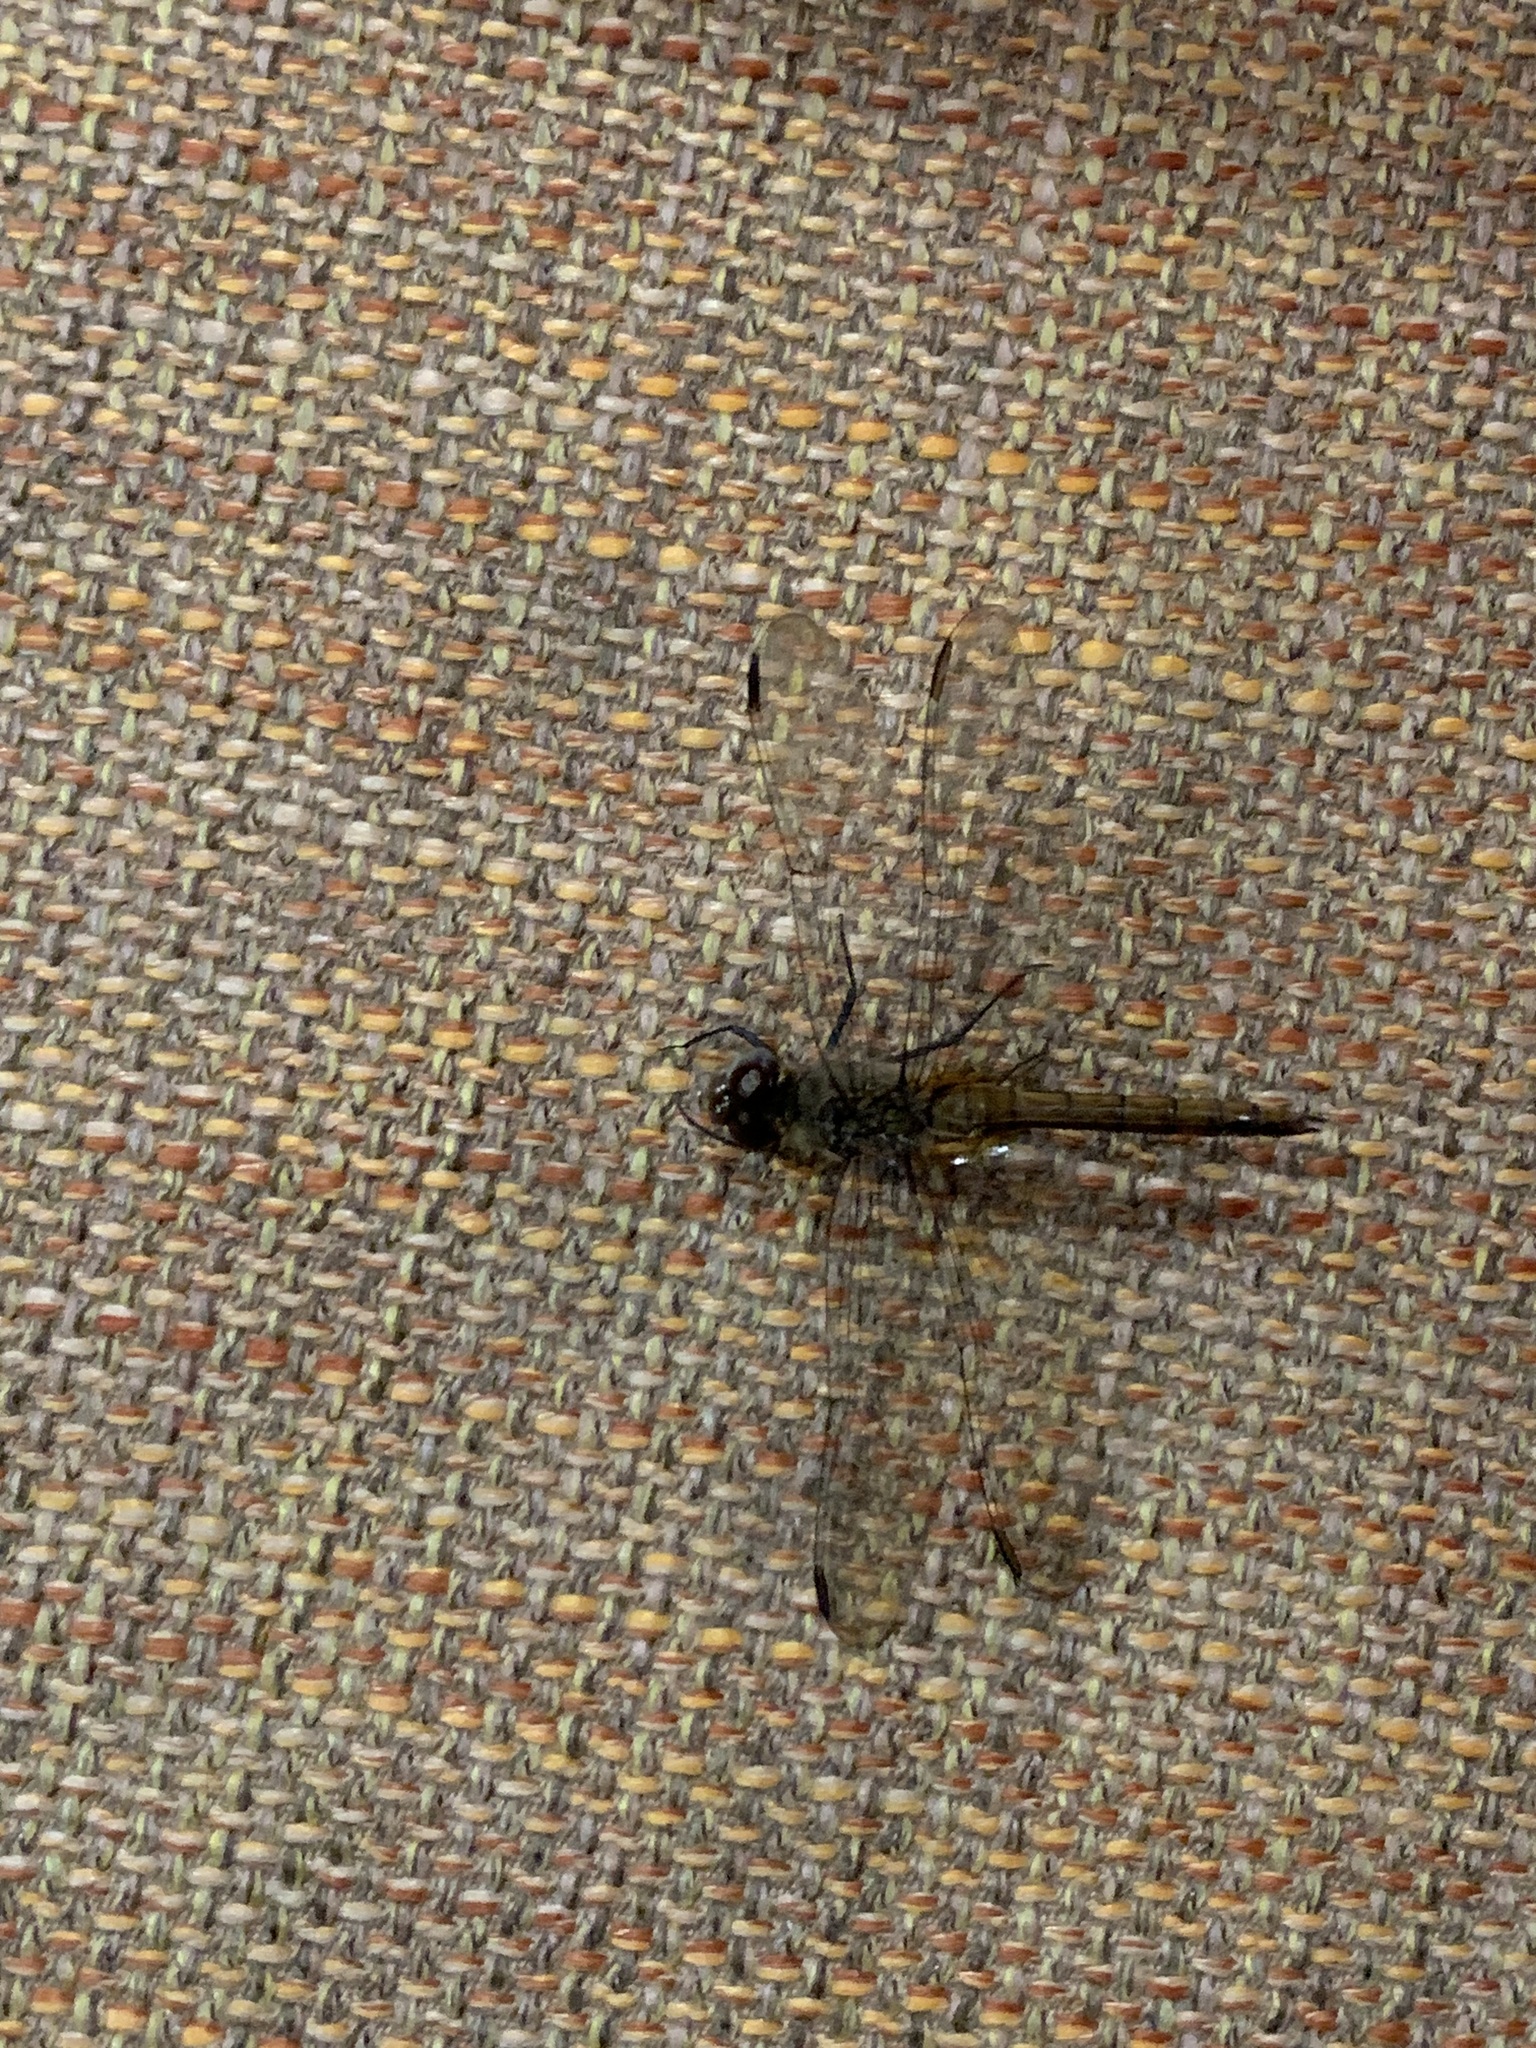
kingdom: Animalia
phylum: Arthropoda
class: Insecta
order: Odonata
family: Libellulidae
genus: Brachymesia
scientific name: Brachymesia furcata
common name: Red-taled pennant
